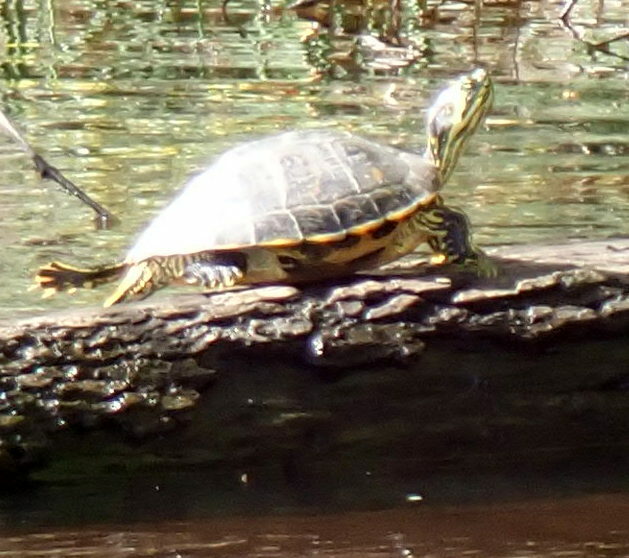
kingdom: Animalia
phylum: Chordata
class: Testudines
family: Emydidae
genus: Pseudemys
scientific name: Pseudemys concinna
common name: Eastern river cooter
